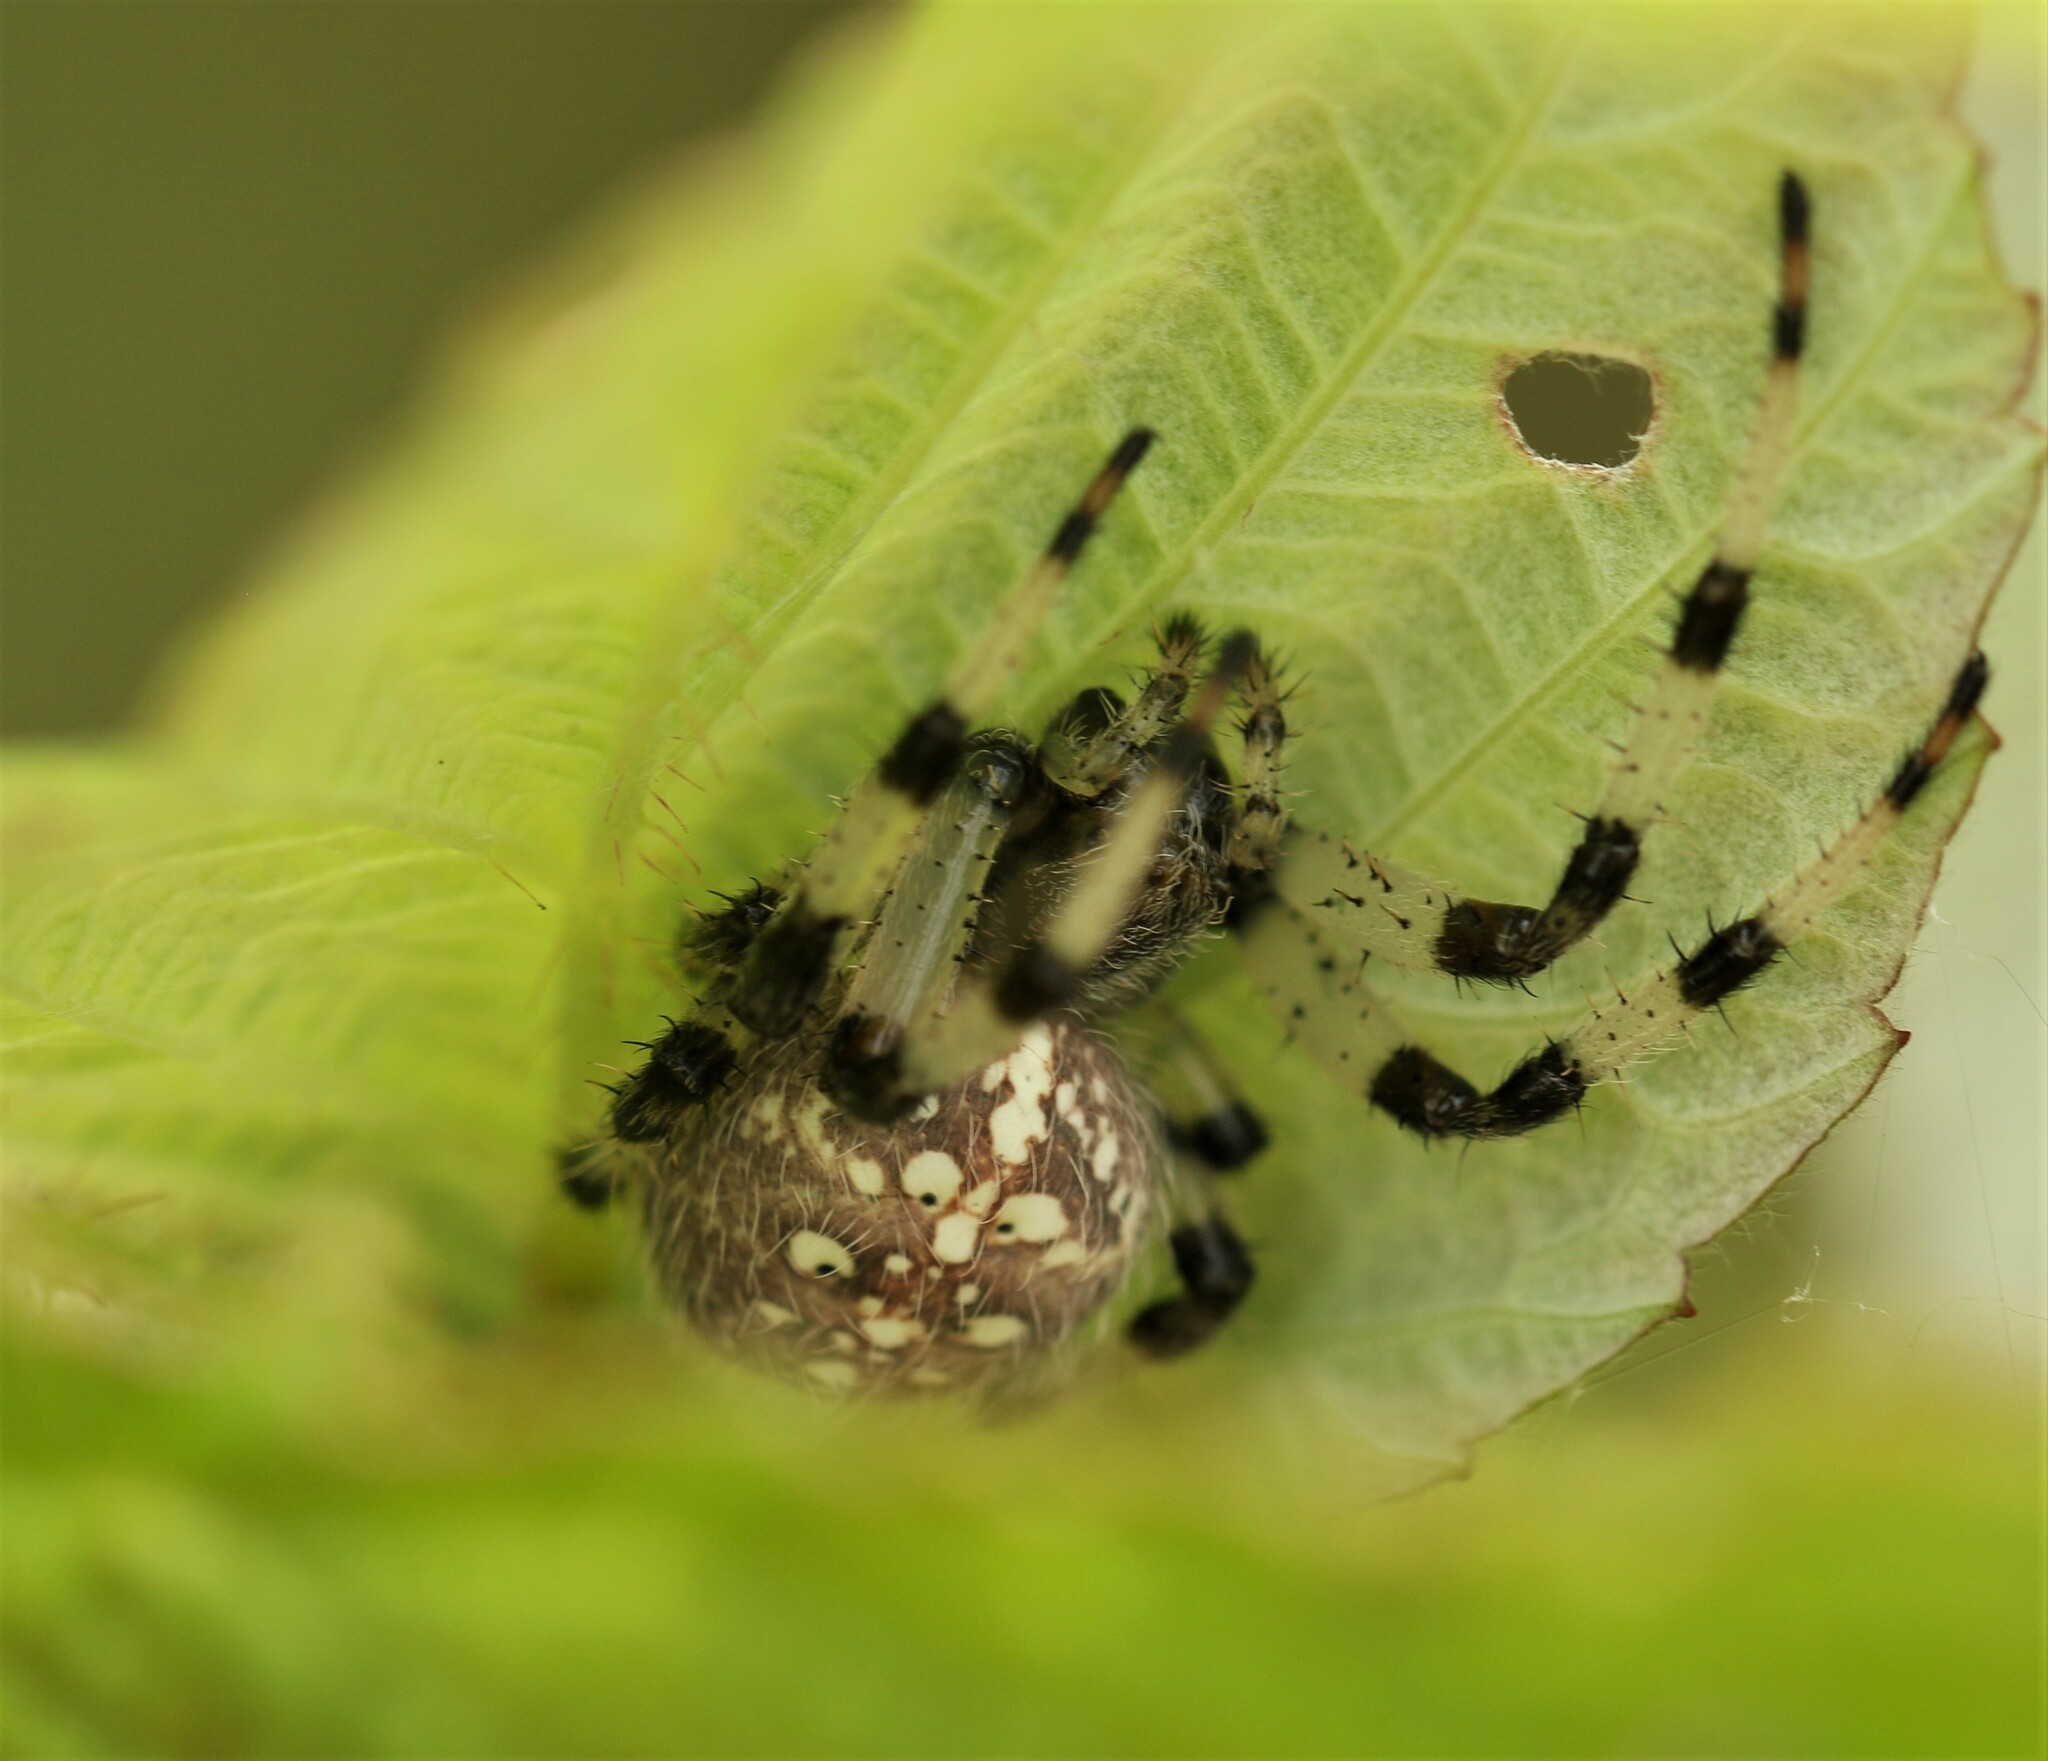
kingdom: Animalia
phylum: Arthropoda
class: Arachnida
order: Araneae
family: Araneidae
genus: Araneus
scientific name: Araneus trifolium
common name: Shamrock orbweaver
